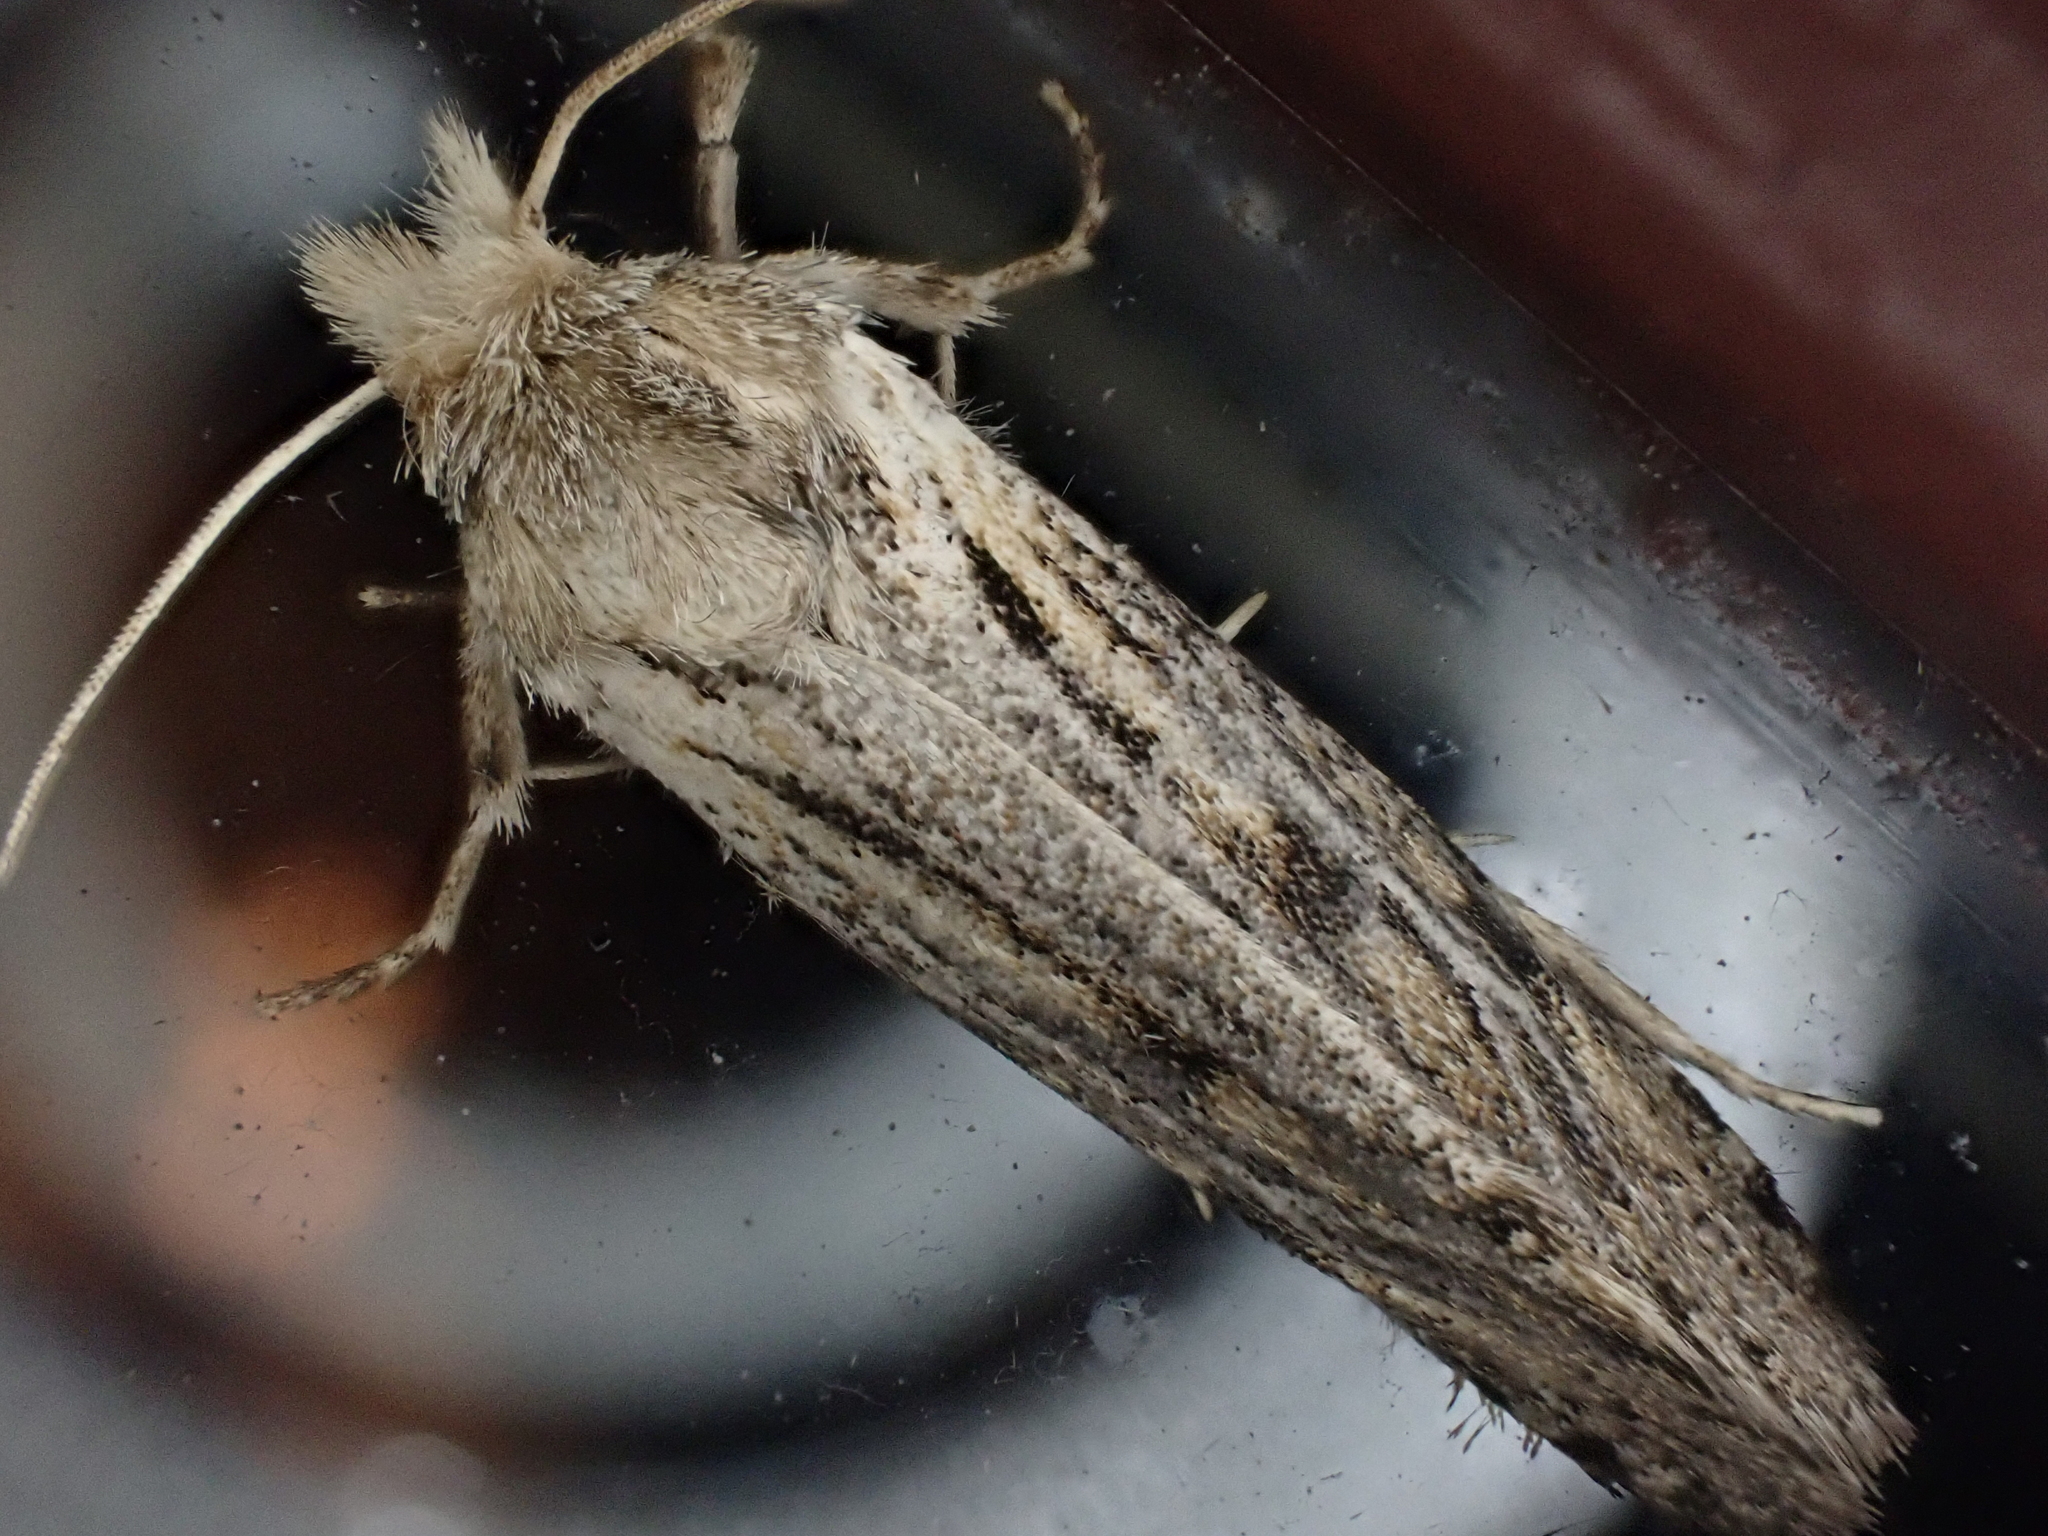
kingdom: Animalia
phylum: Arthropoda
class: Insecta
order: Lepidoptera
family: Tineidae
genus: Acrolophus
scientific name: Acrolophus popeanella
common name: Clemens' grass tubeworm moth
